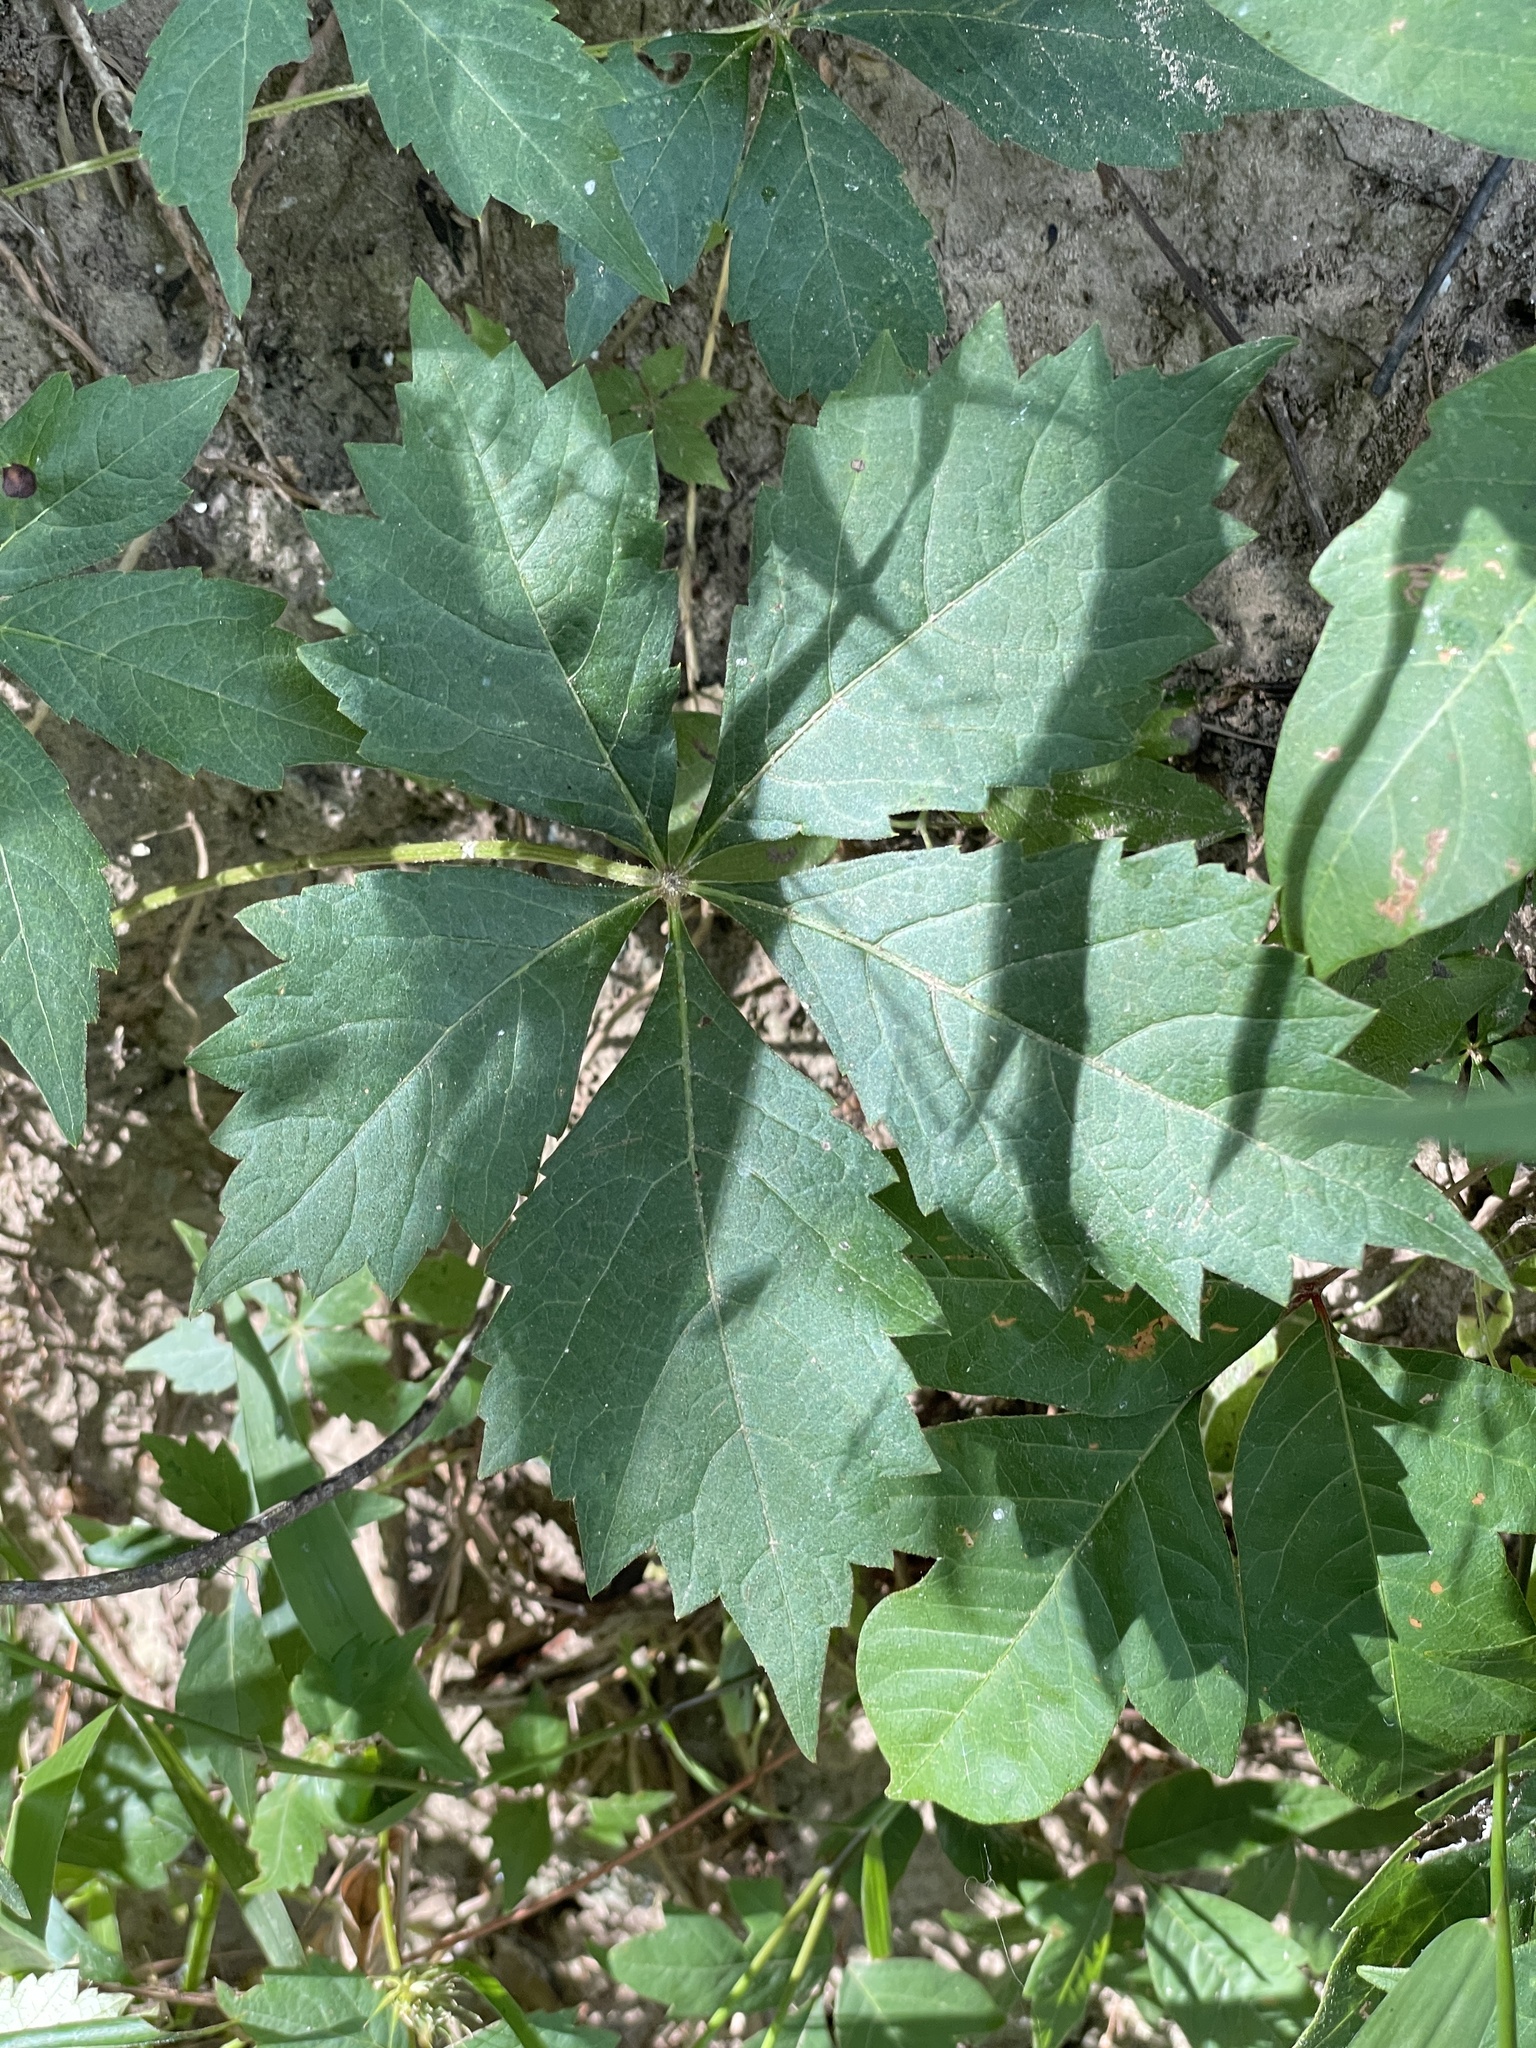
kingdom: Plantae
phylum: Tracheophyta
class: Magnoliopsida
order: Vitales
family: Vitaceae
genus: Parthenocissus
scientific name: Parthenocissus quinquefolia
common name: Virginia-creeper
